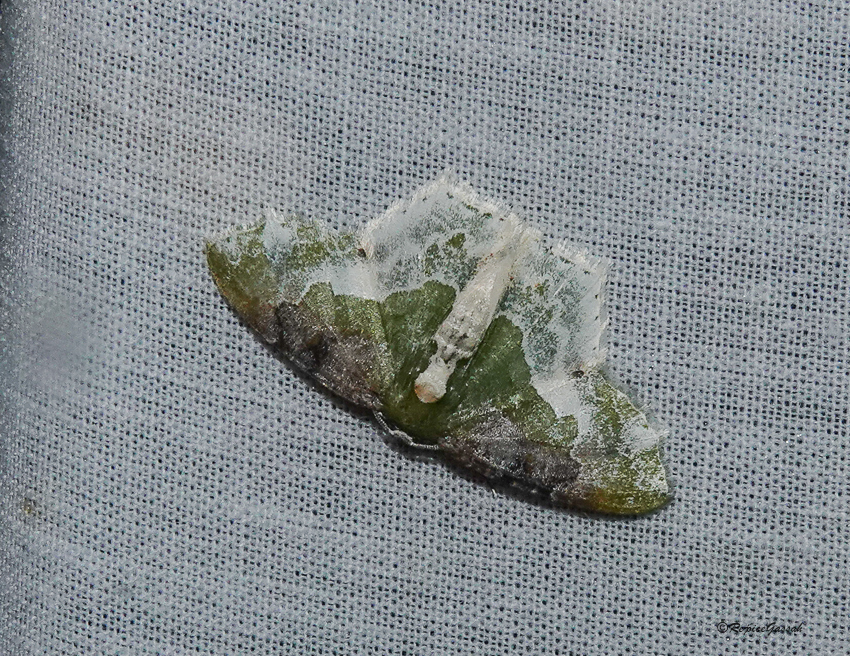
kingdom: Animalia
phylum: Arthropoda
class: Insecta
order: Lepidoptera
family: Geometridae
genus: Eucyclodes
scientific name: Eucyclodes semialba
